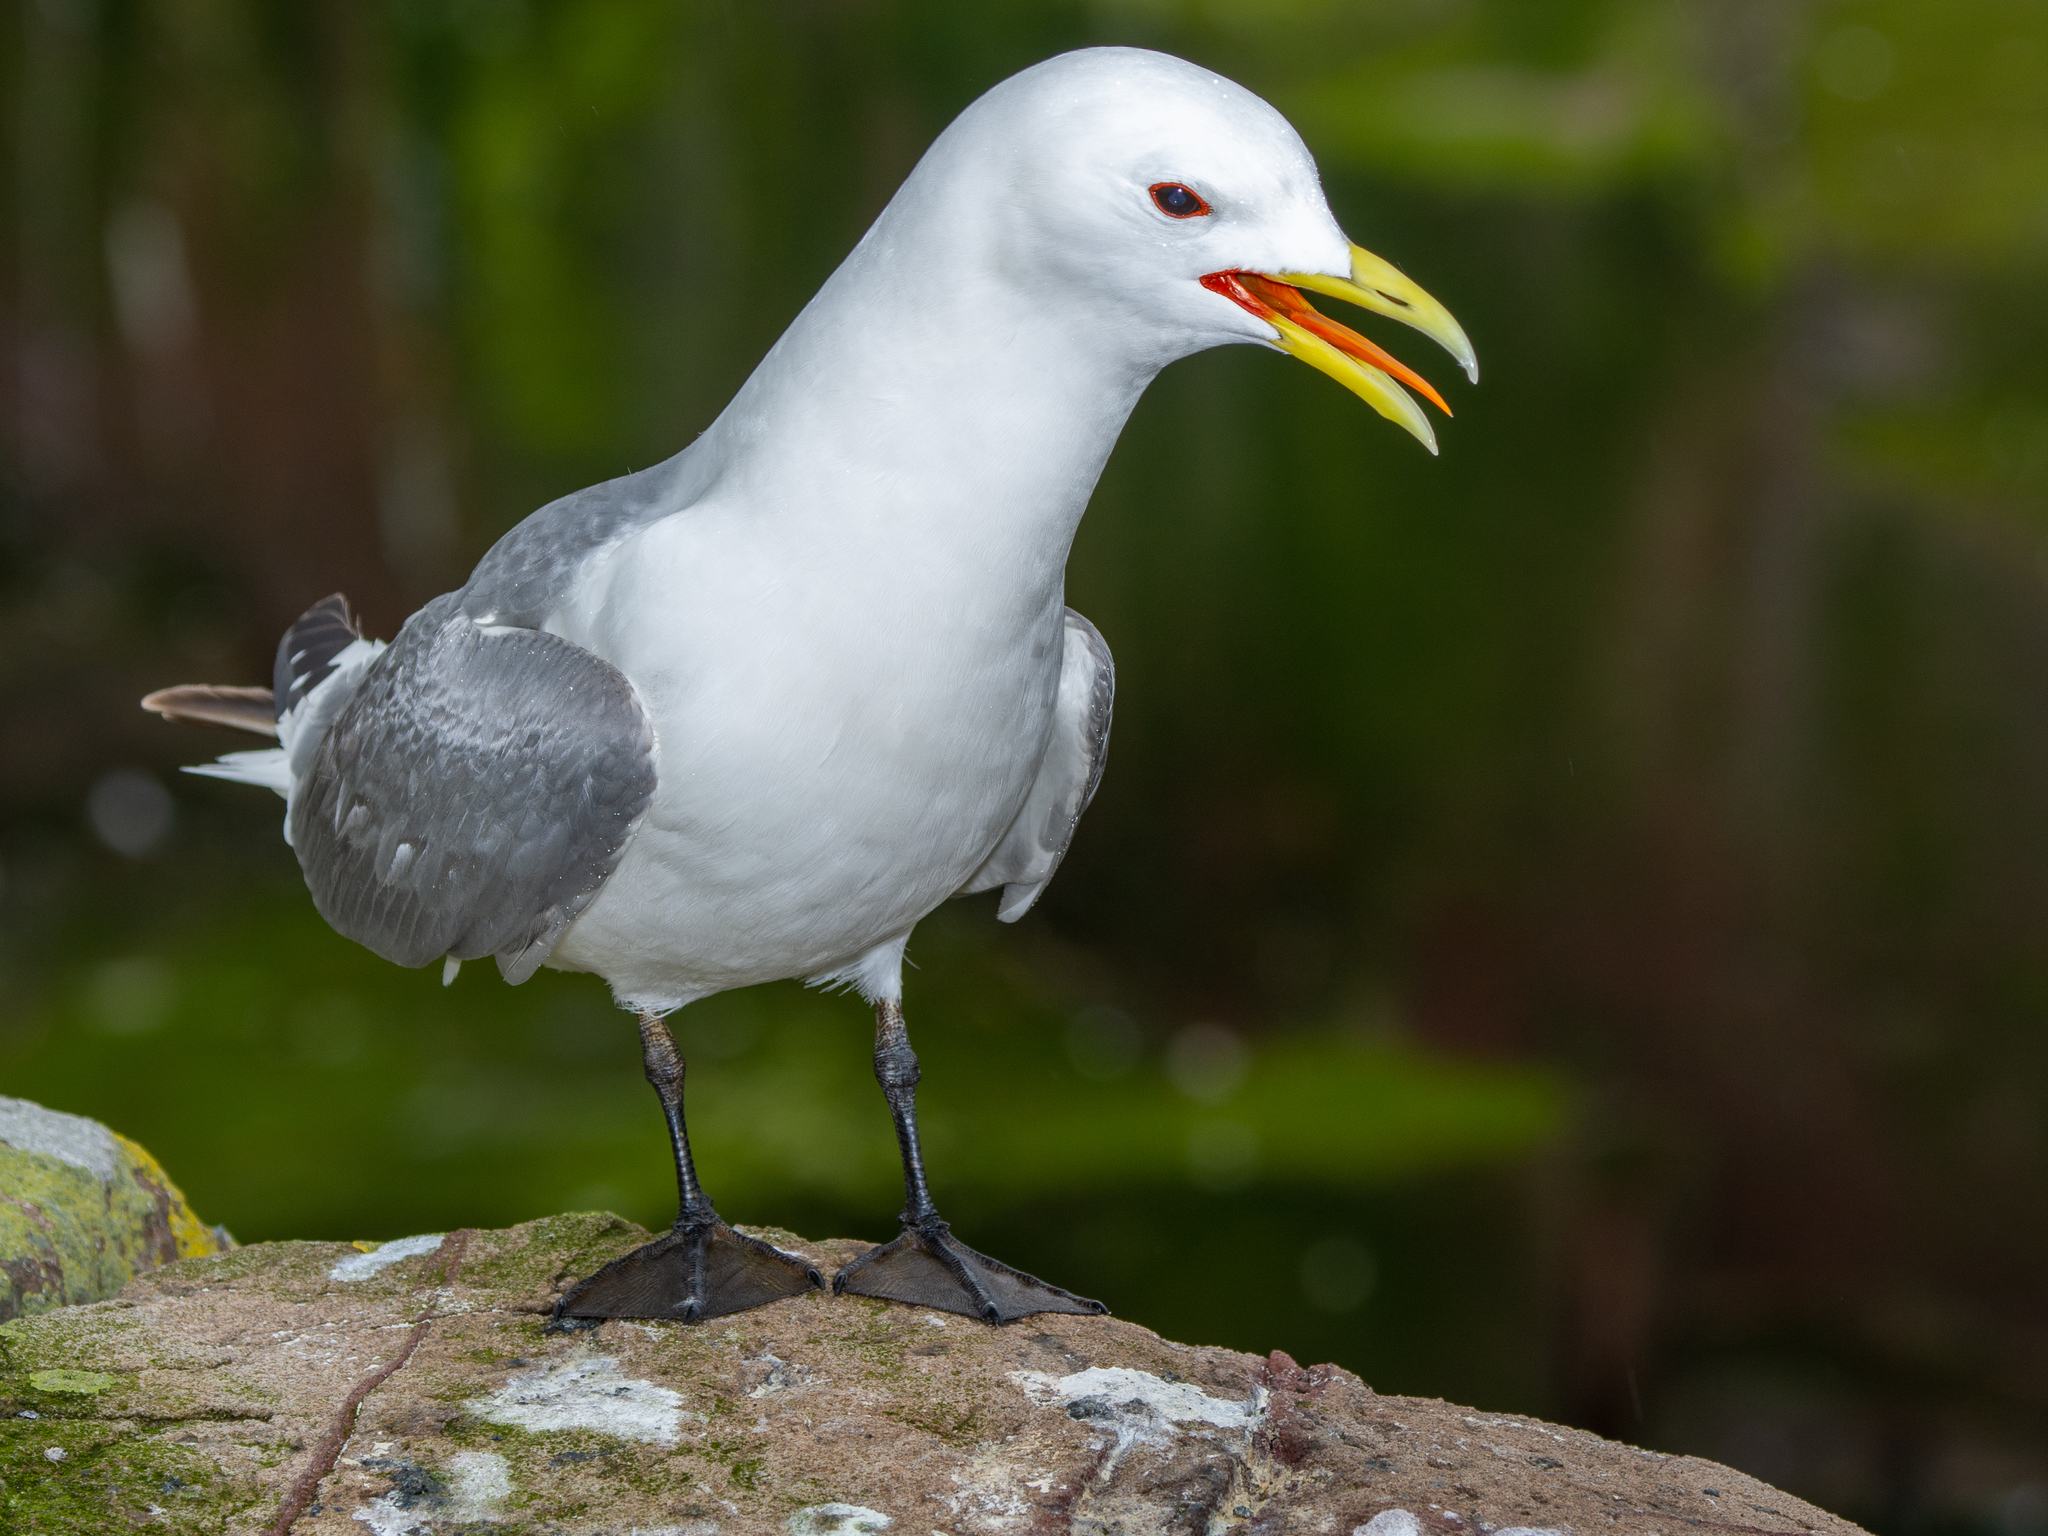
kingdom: Animalia
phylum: Chordata
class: Aves
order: Charadriiformes
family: Laridae
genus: Rissa
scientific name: Rissa tridactyla
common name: Black-legged kittiwake
